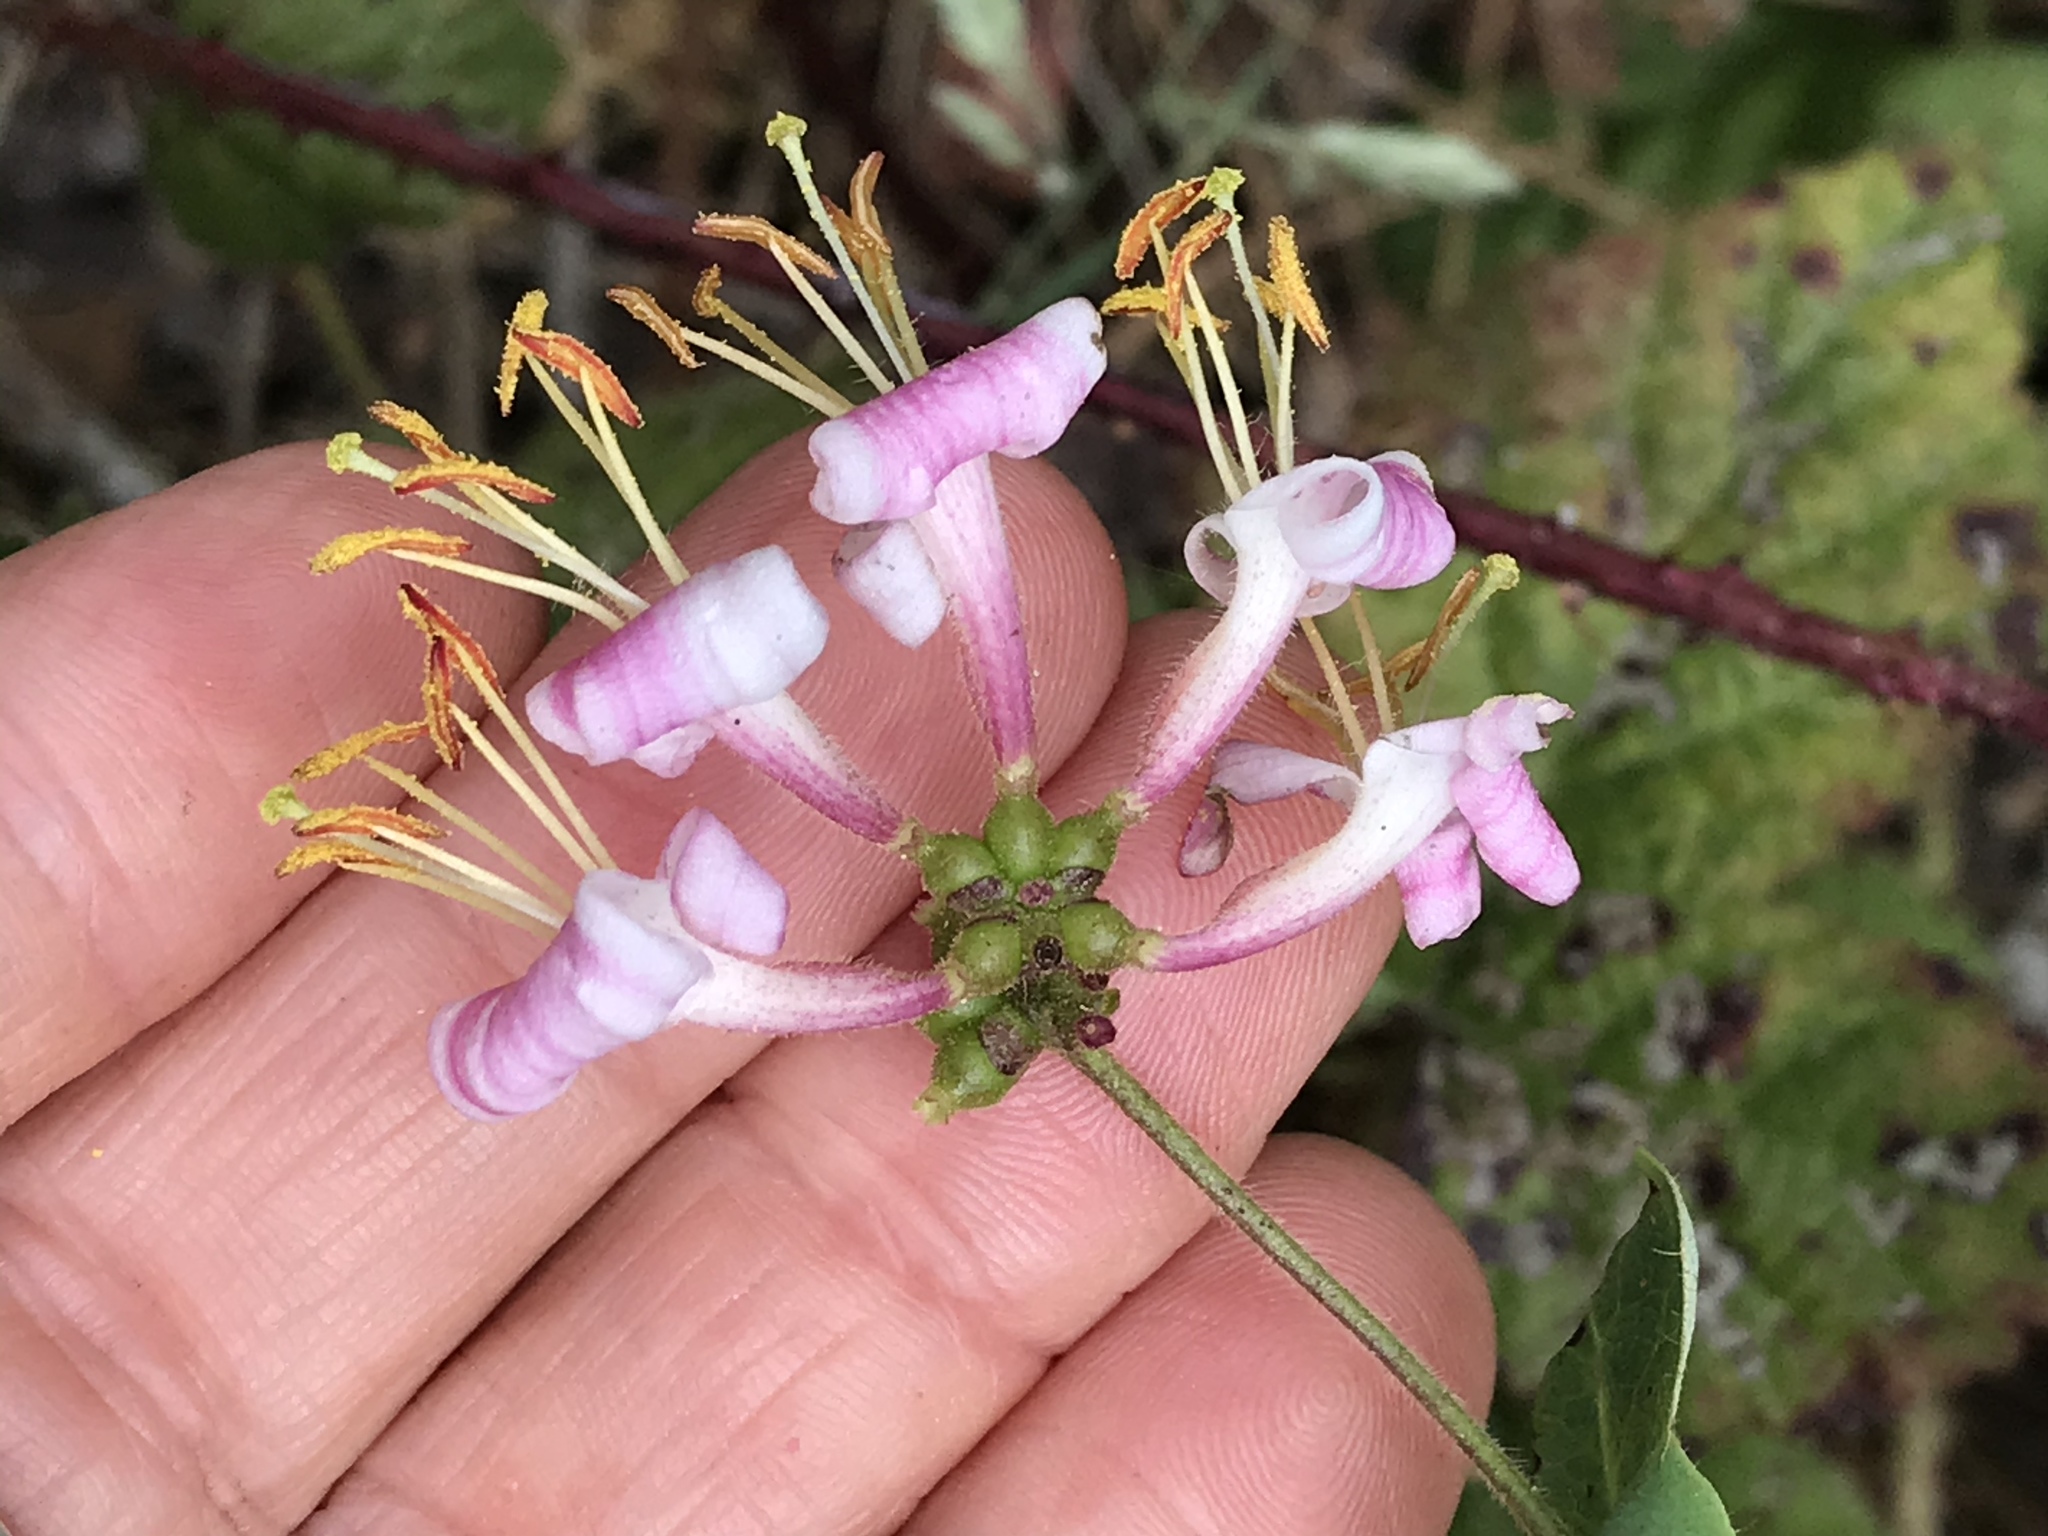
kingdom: Plantae
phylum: Tracheophyta
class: Magnoliopsida
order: Dipsacales
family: Caprifoliaceae
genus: Lonicera
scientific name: Lonicera hispidula
